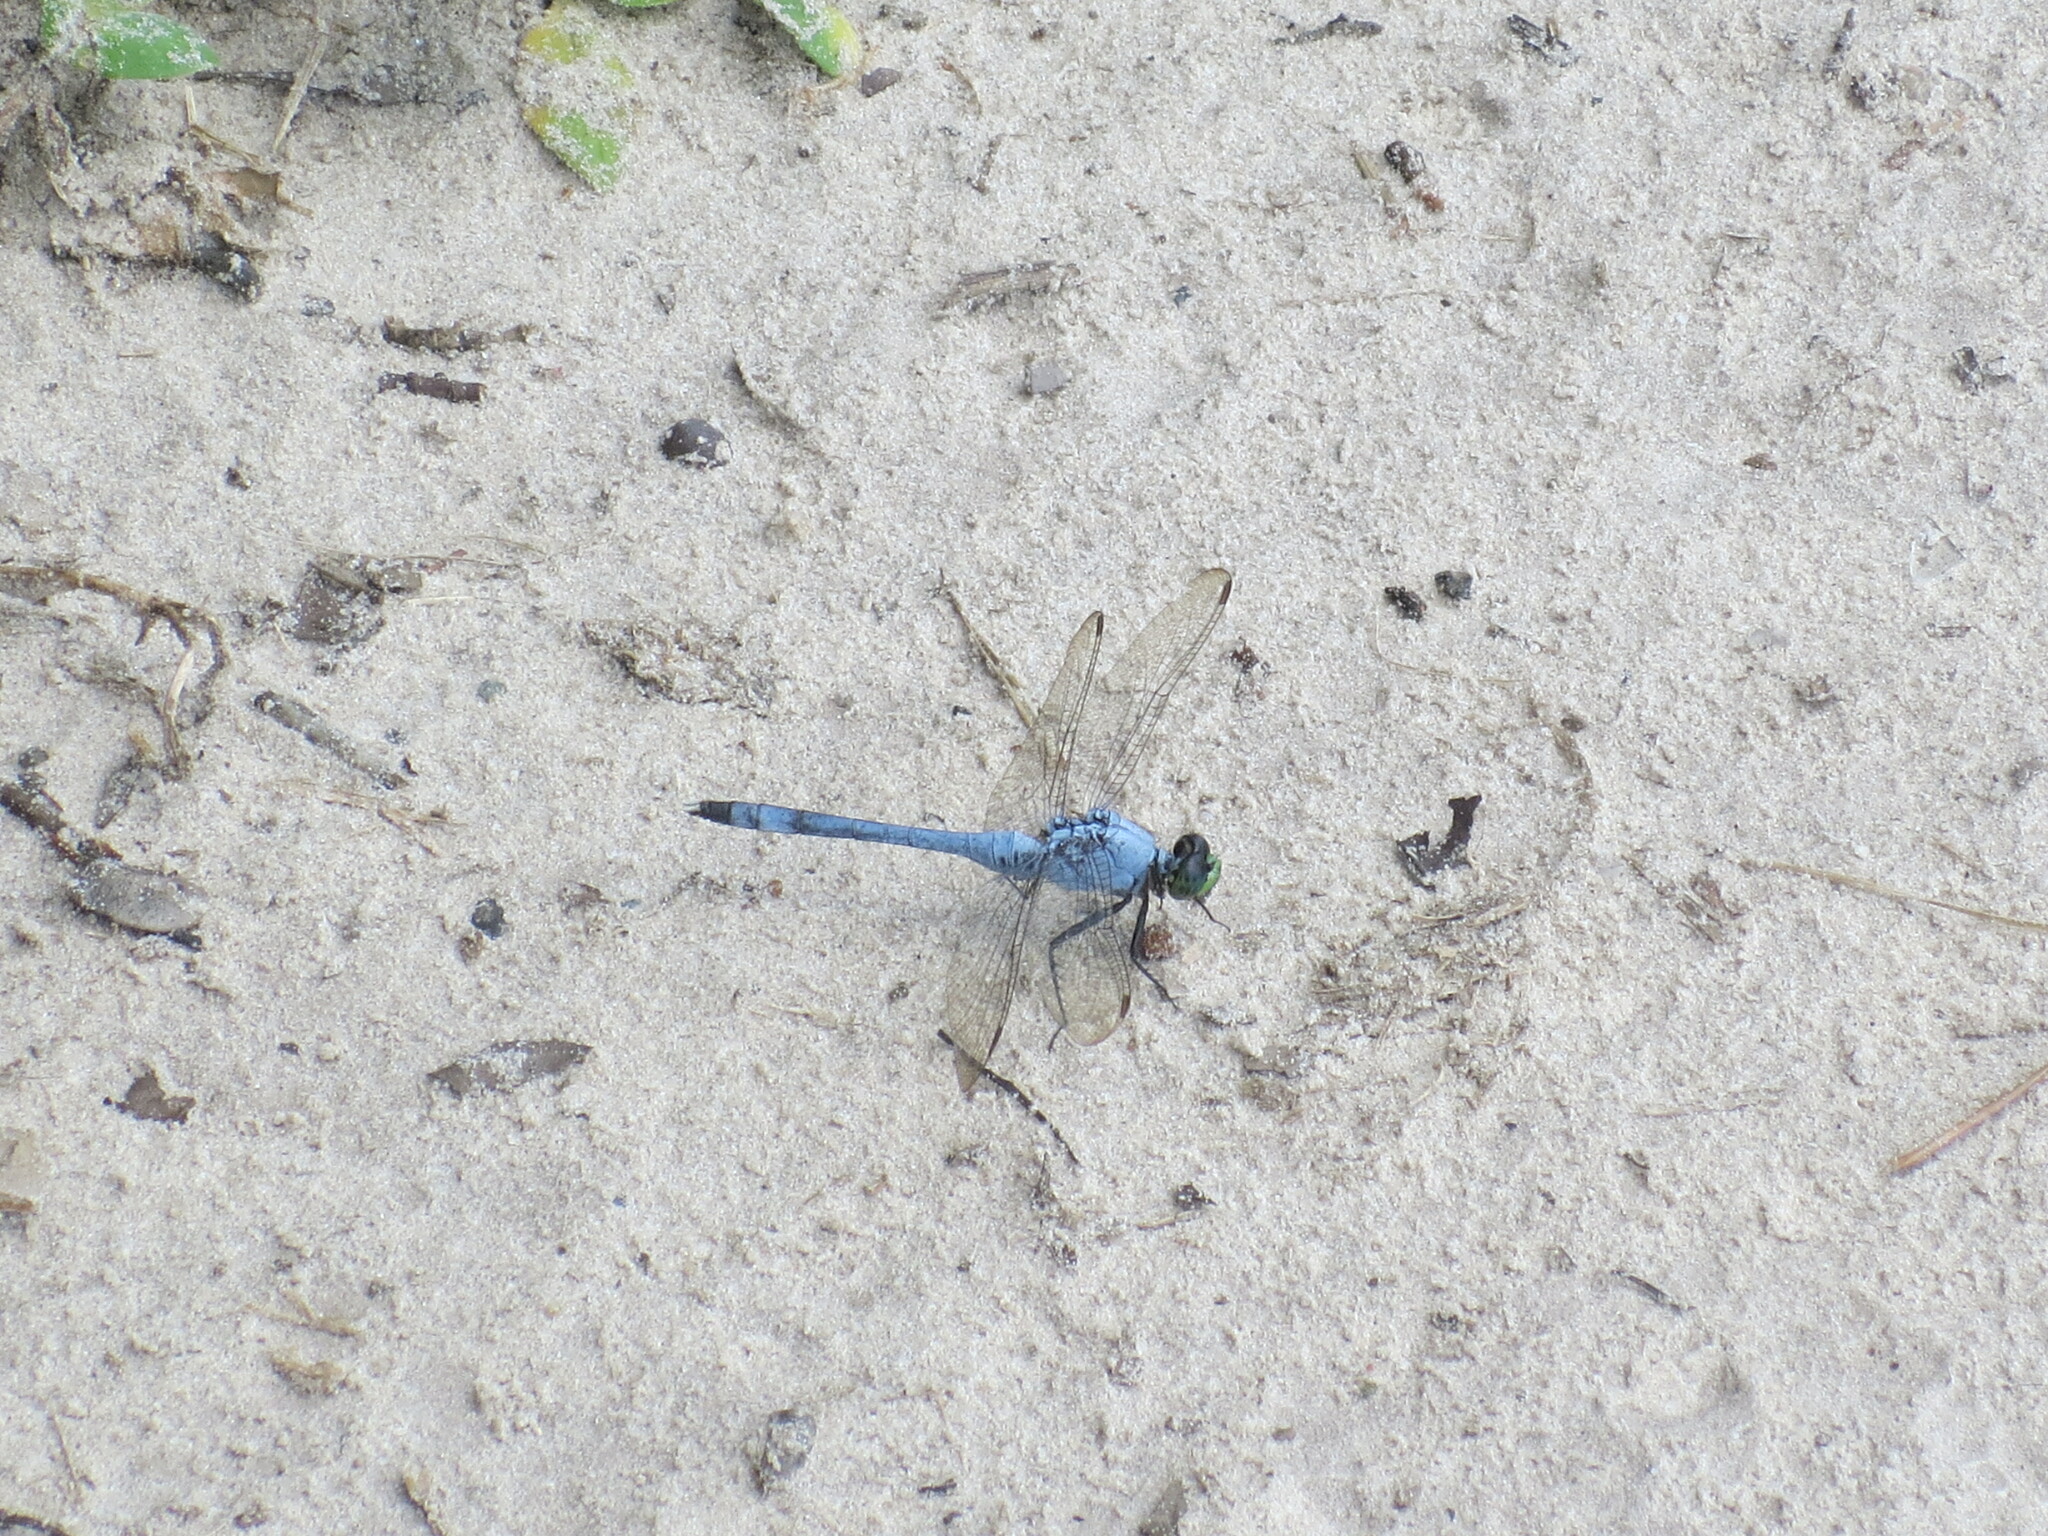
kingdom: Animalia
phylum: Arthropoda
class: Insecta
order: Odonata
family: Libellulidae
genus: Erythemis
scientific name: Erythemis simplicicollis
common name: Eastern pondhawk
